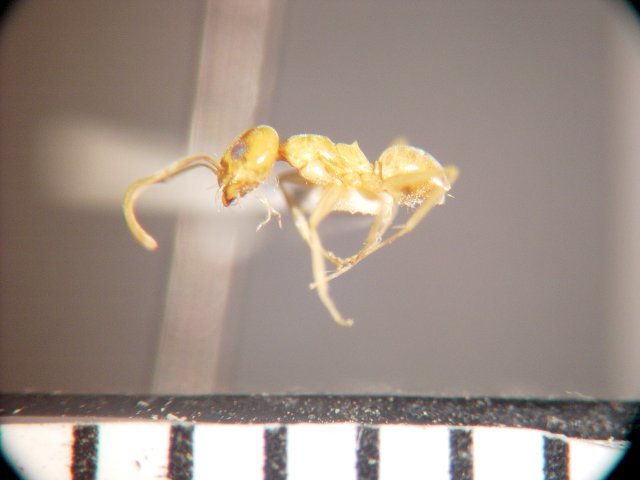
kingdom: Animalia
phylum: Arthropoda
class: Insecta
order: Hymenoptera
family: Formicidae
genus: Dorymyrmex
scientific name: Dorymyrmex flavus
